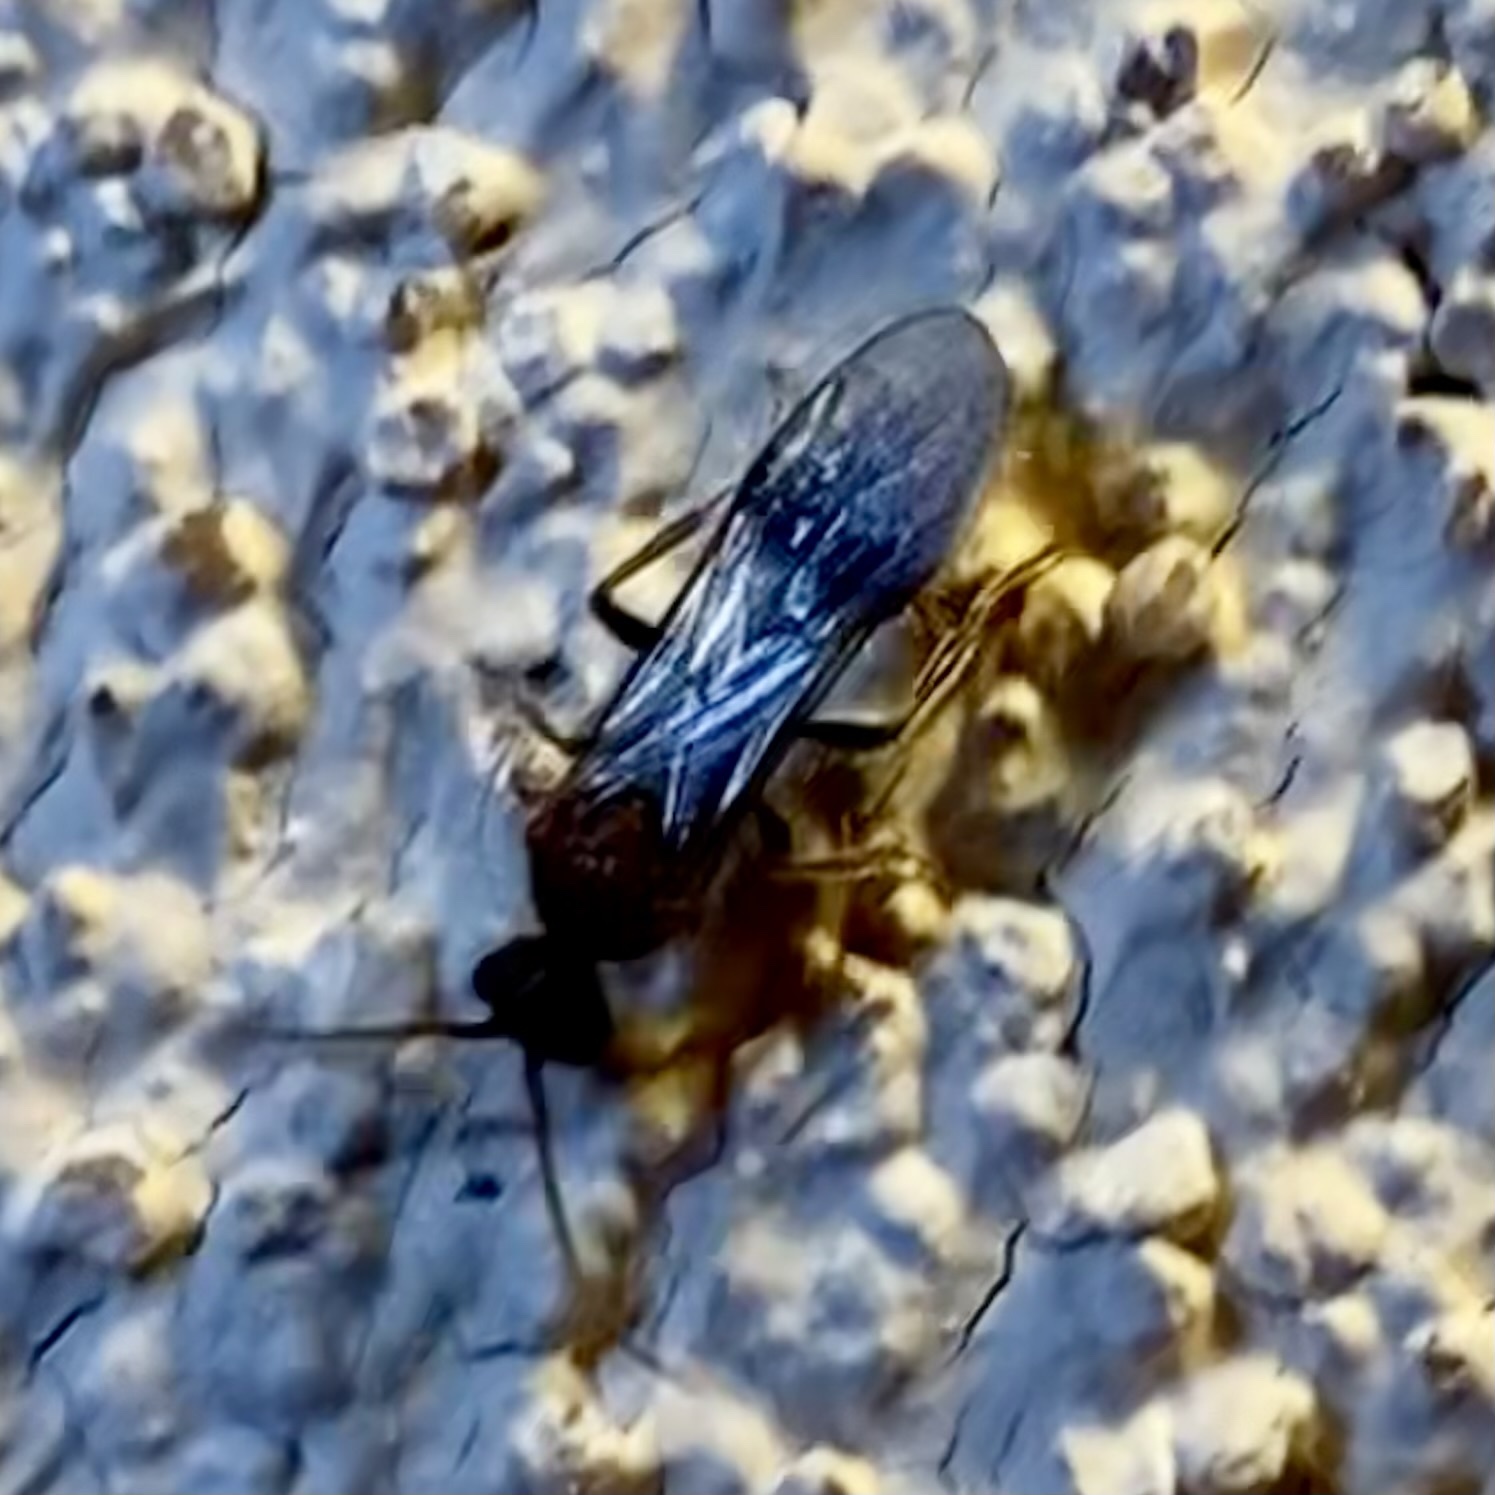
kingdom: Animalia
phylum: Arthropoda
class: Insecta
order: Hymenoptera
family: Mutillidae
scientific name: Mutillidae
